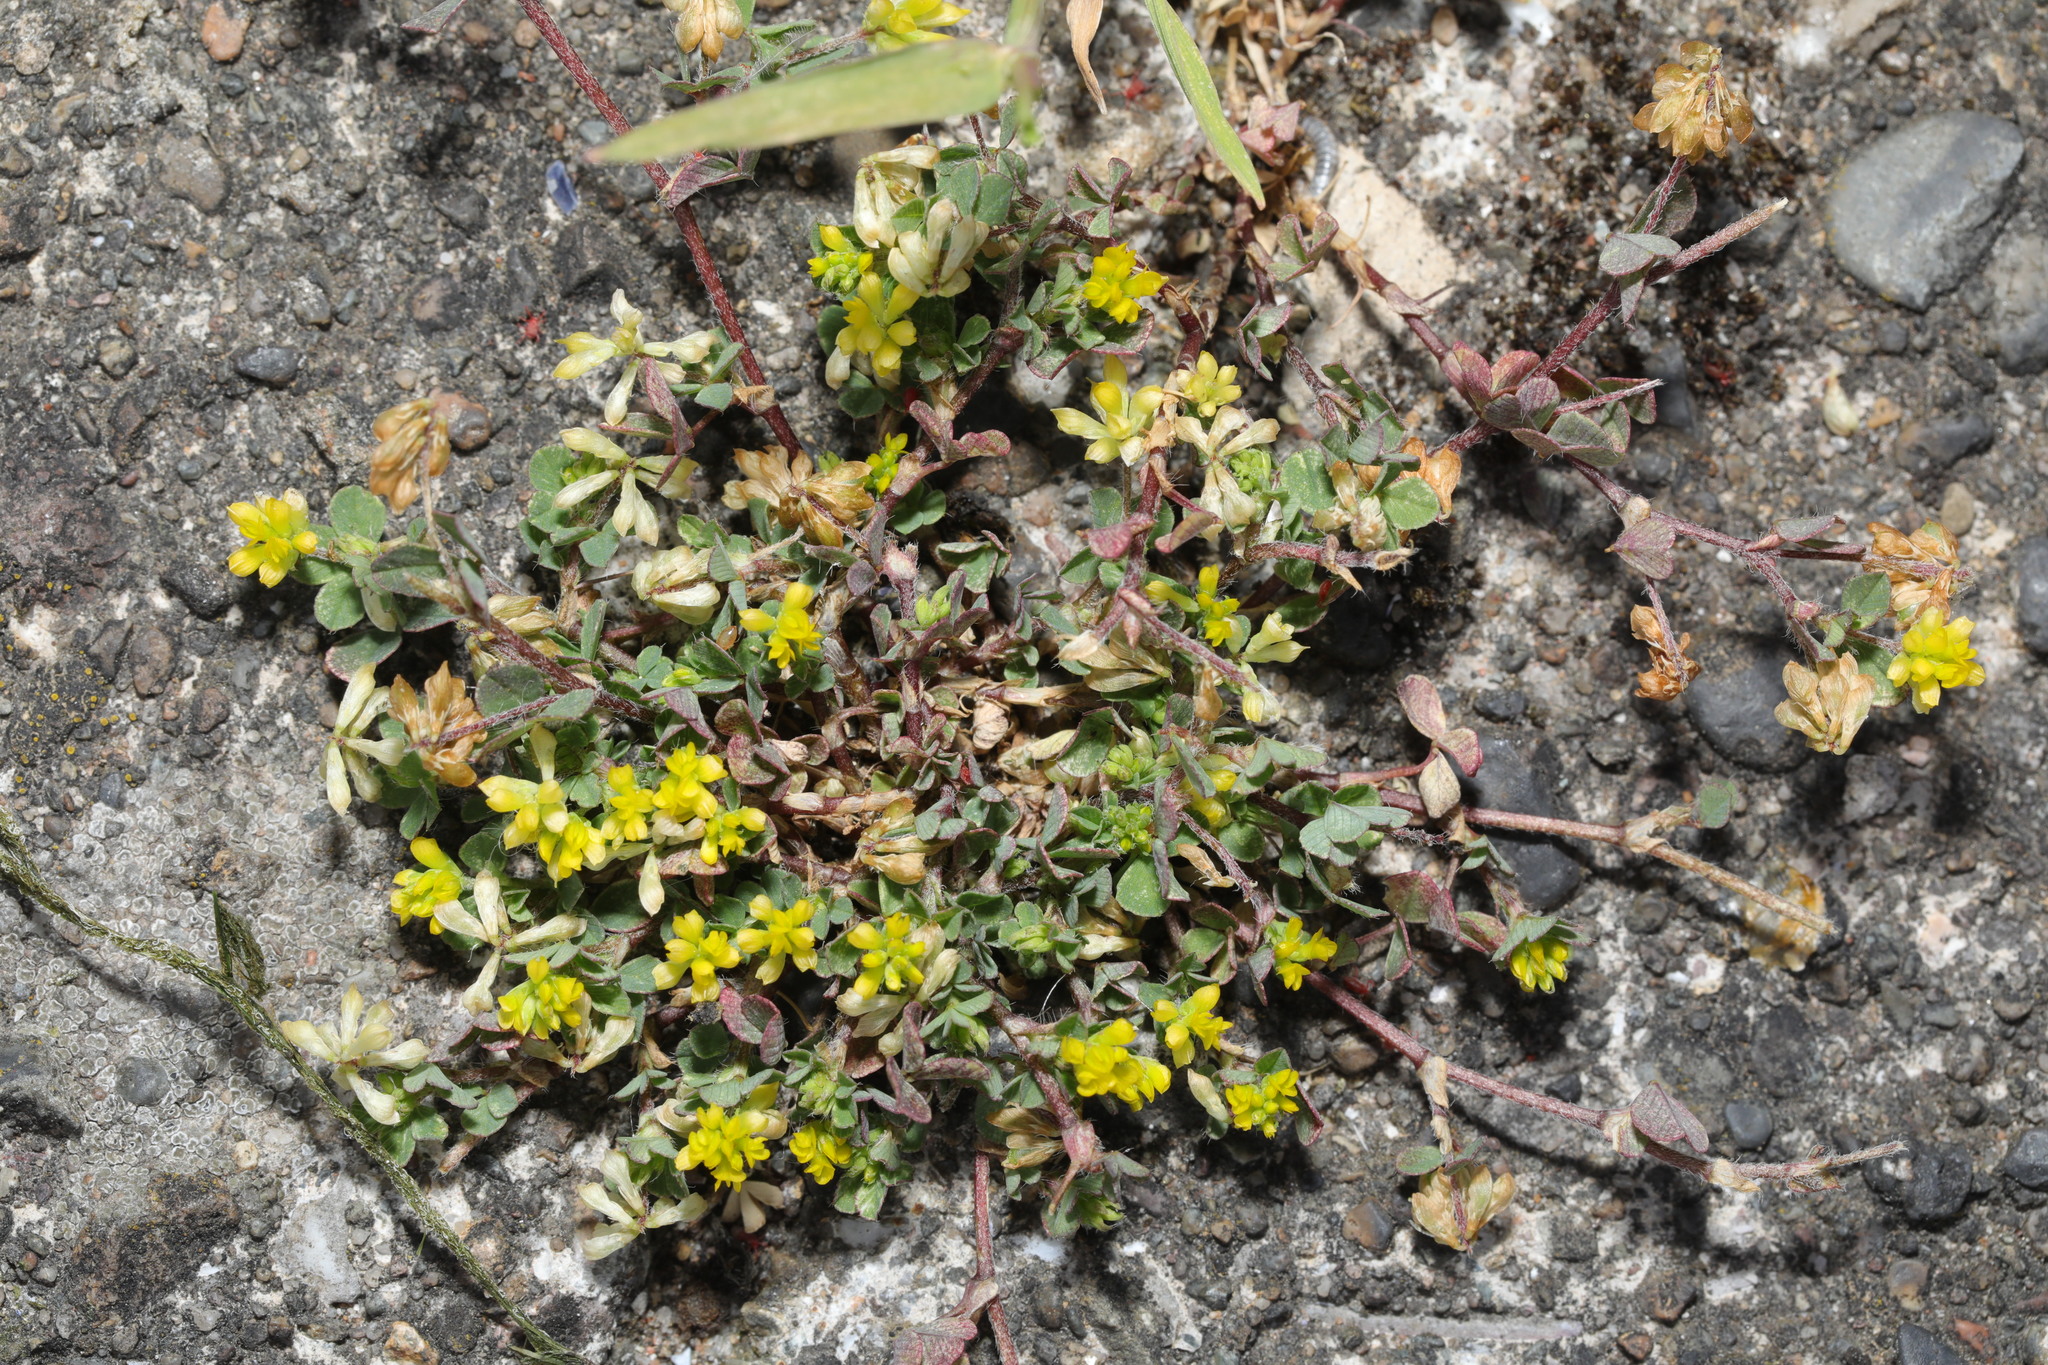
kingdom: Plantae
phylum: Tracheophyta
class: Magnoliopsida
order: Fabales
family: Fabaceae
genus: Trifolium
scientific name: Trifolium dubium
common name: Suckling clover
